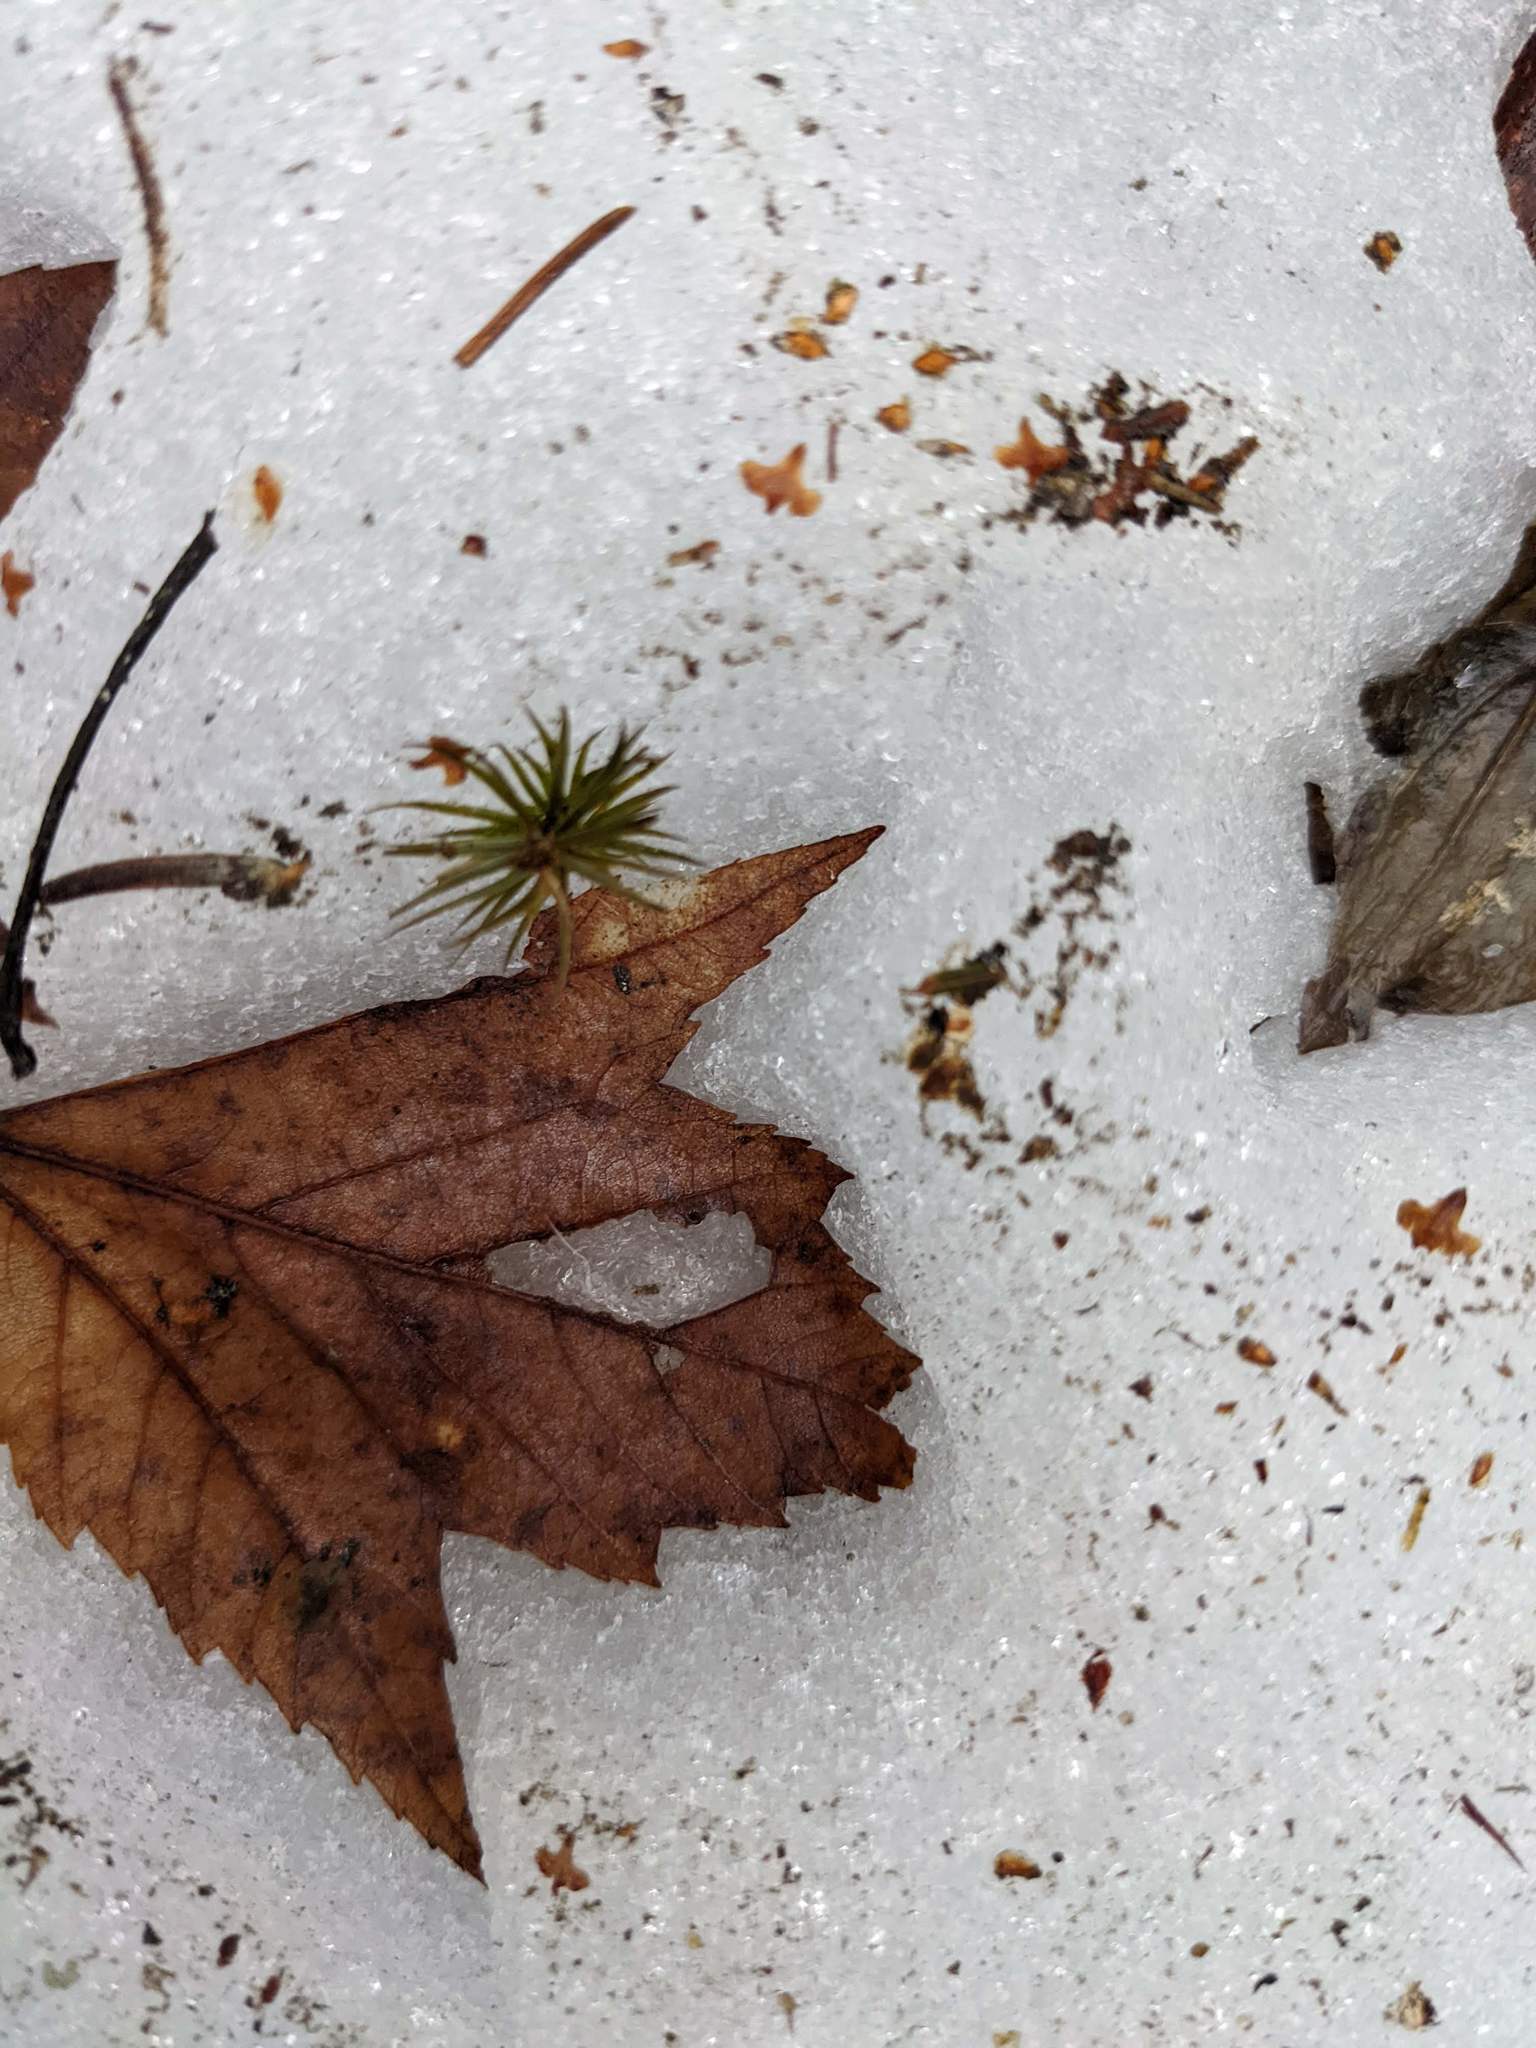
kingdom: Plantae
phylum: Tracheophyta
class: Magnoliopsida
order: Sapindales
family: Sapindaceae
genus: Acer
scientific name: Acer rubrum
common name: Red maple
